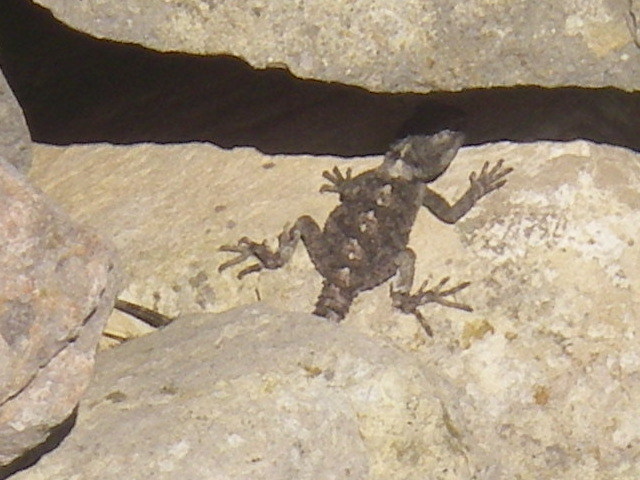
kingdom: Animalia
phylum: Chordata
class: Squamata
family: Agamidae
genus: Stellagama
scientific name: Stellagama stellio
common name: Starred agama
